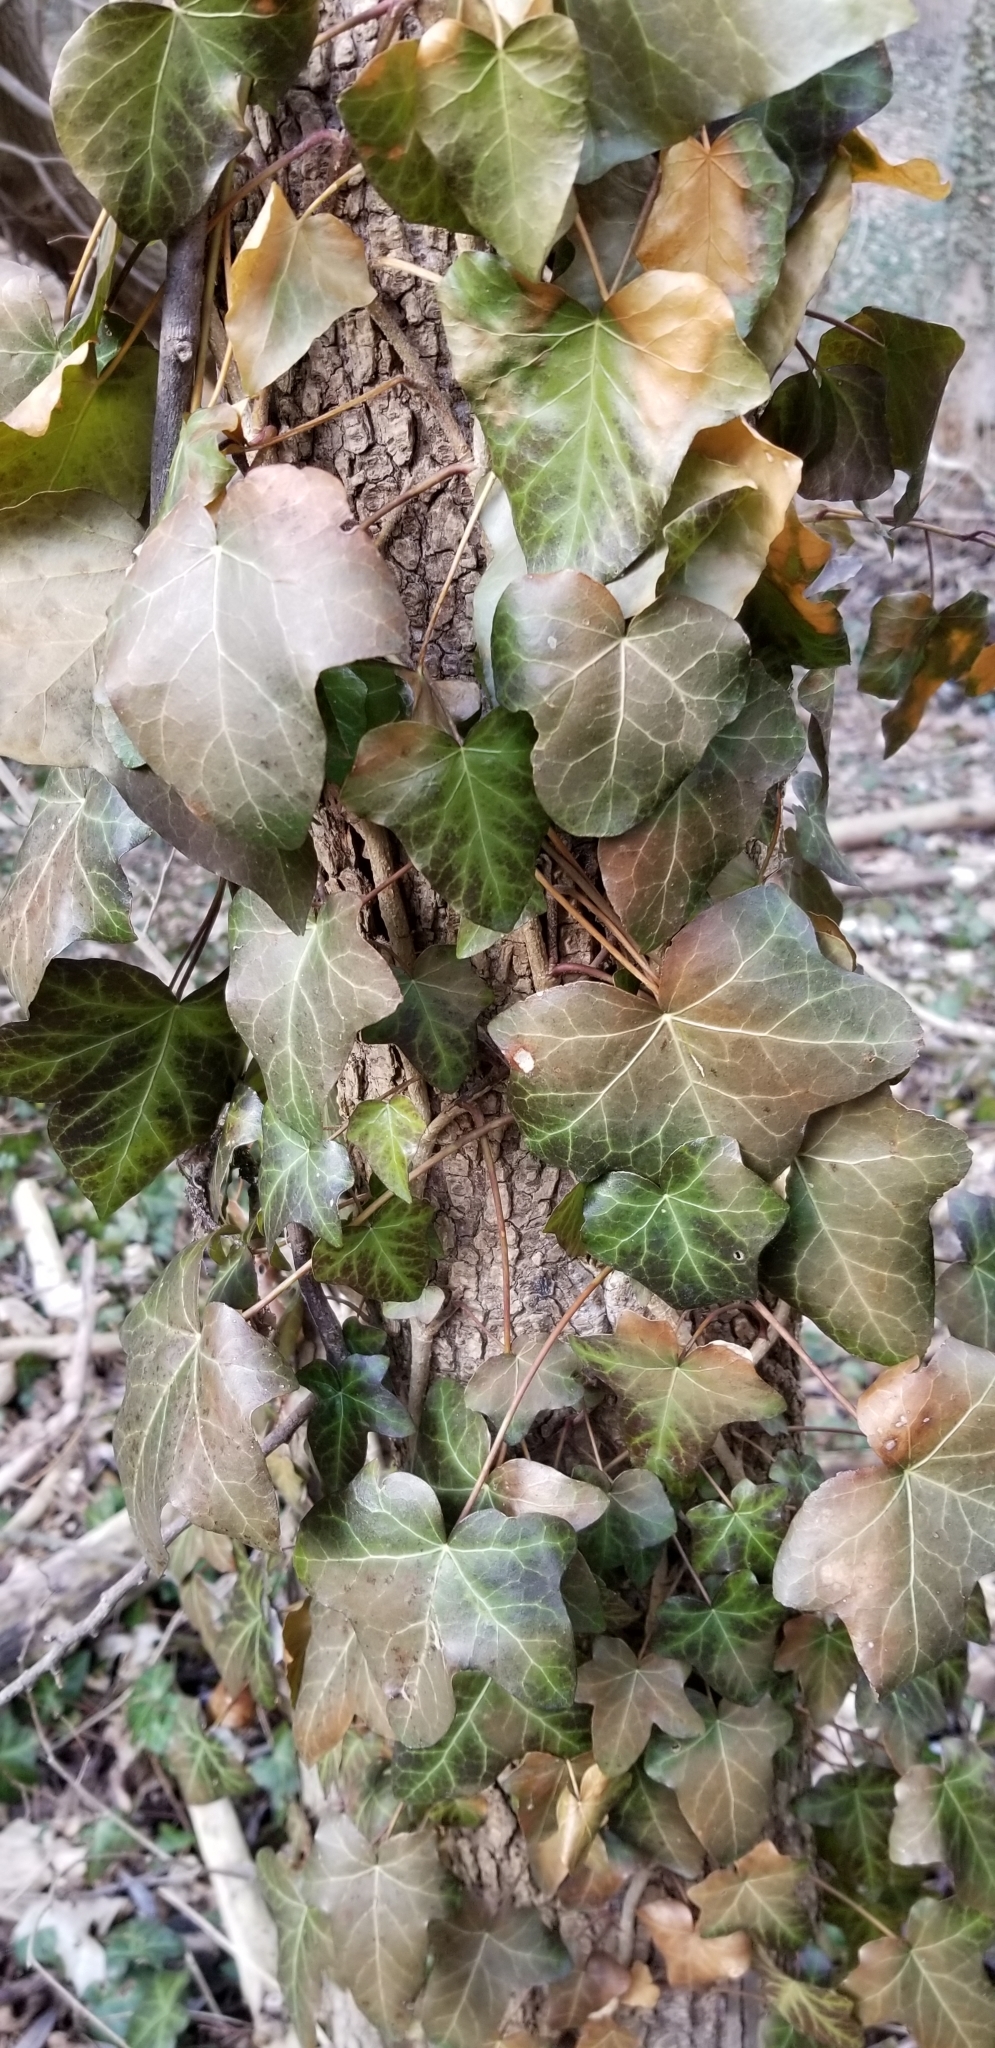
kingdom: Plantae
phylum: Tracheophyta
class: Magnoliopsida
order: Apiales
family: Araliaceae
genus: Hedera
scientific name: Hedera helix
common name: Ivy
